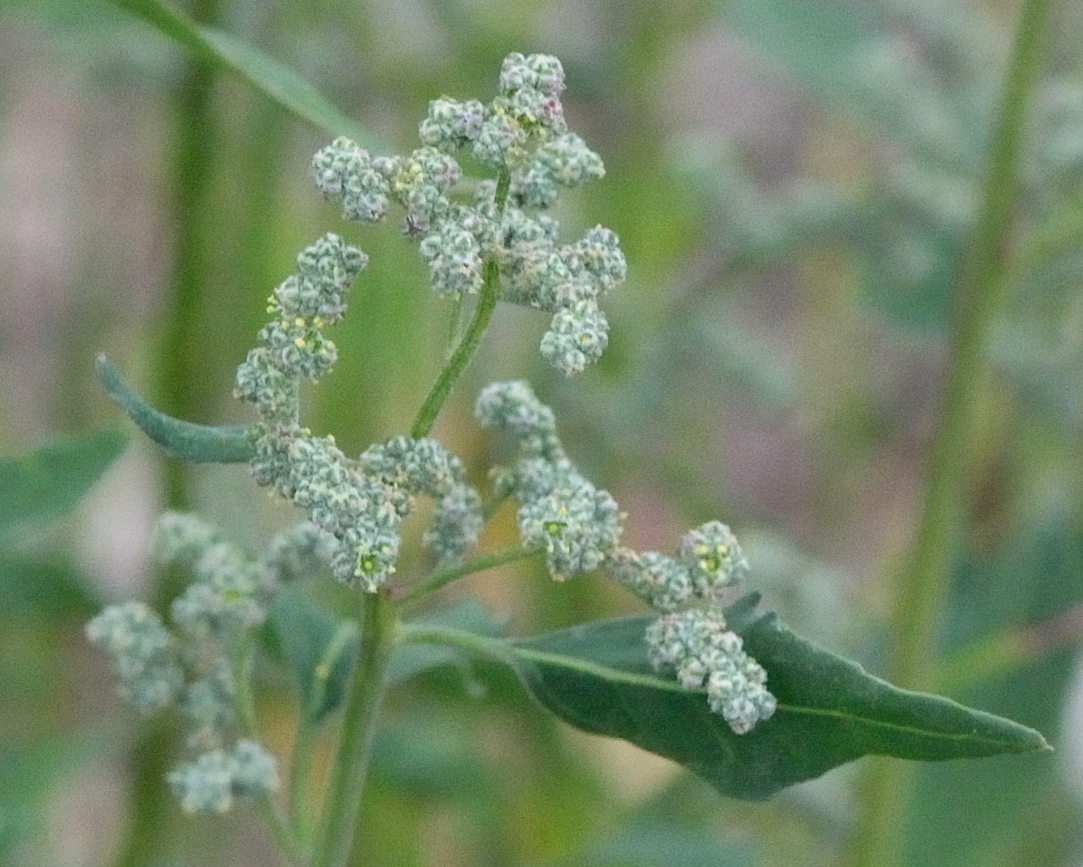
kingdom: Plantae
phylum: Tracheophyta
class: Magnoliopsida
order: Caryophyllales
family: Amaranthaceae
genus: Chenopodium
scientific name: Chenopodium album
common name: Fat-hen
